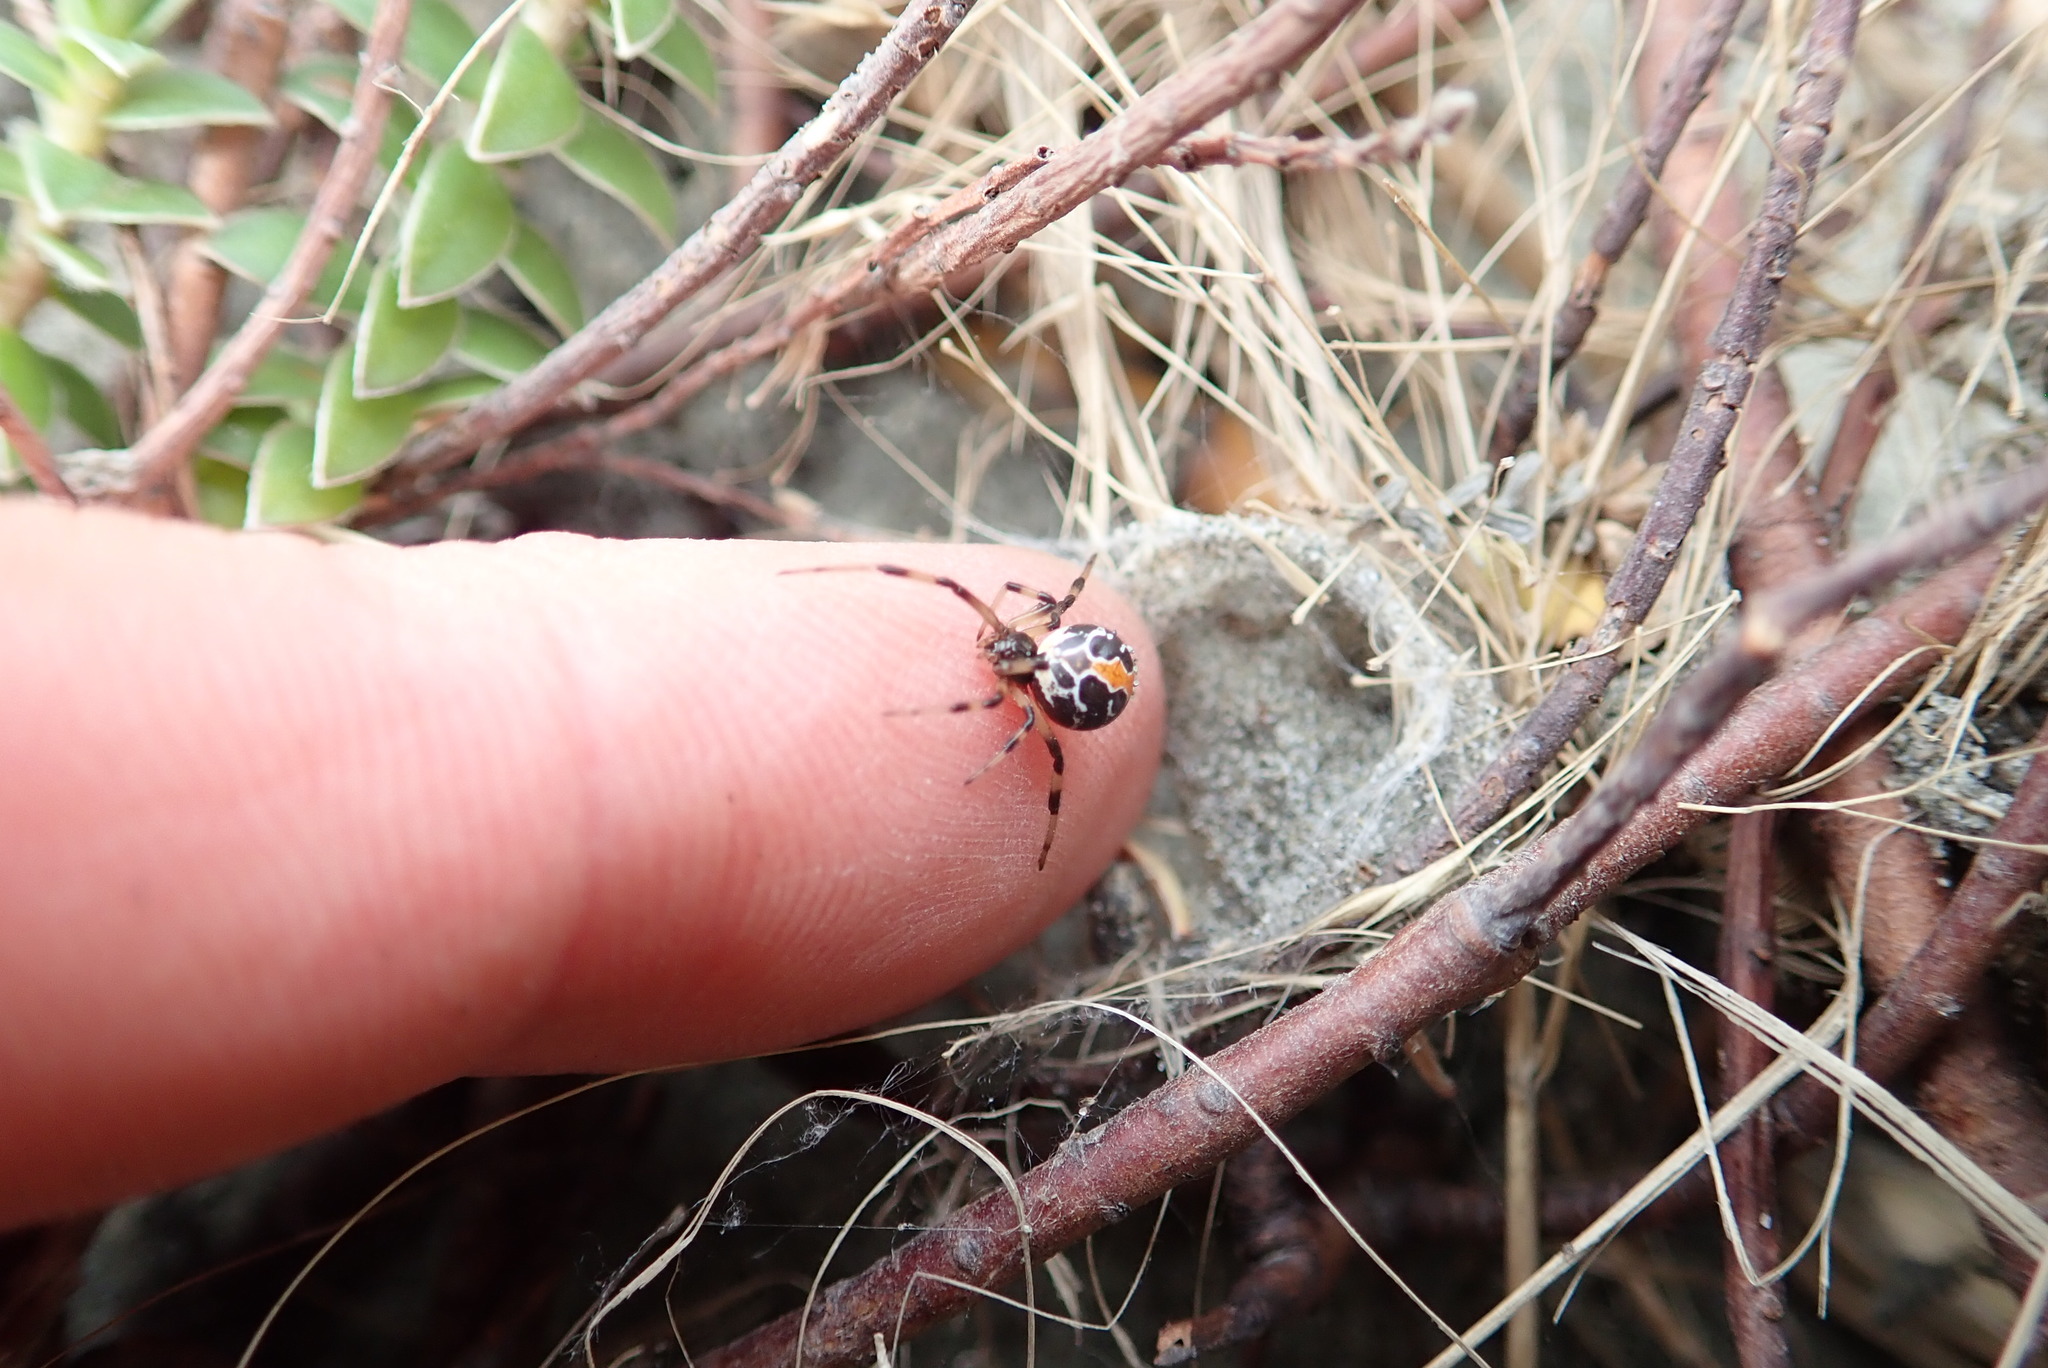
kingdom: Animalia
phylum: Arthropoda
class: Arachnida
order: Araneae
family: Theridiidae
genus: Latrodectus
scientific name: Latrodectus katipo
